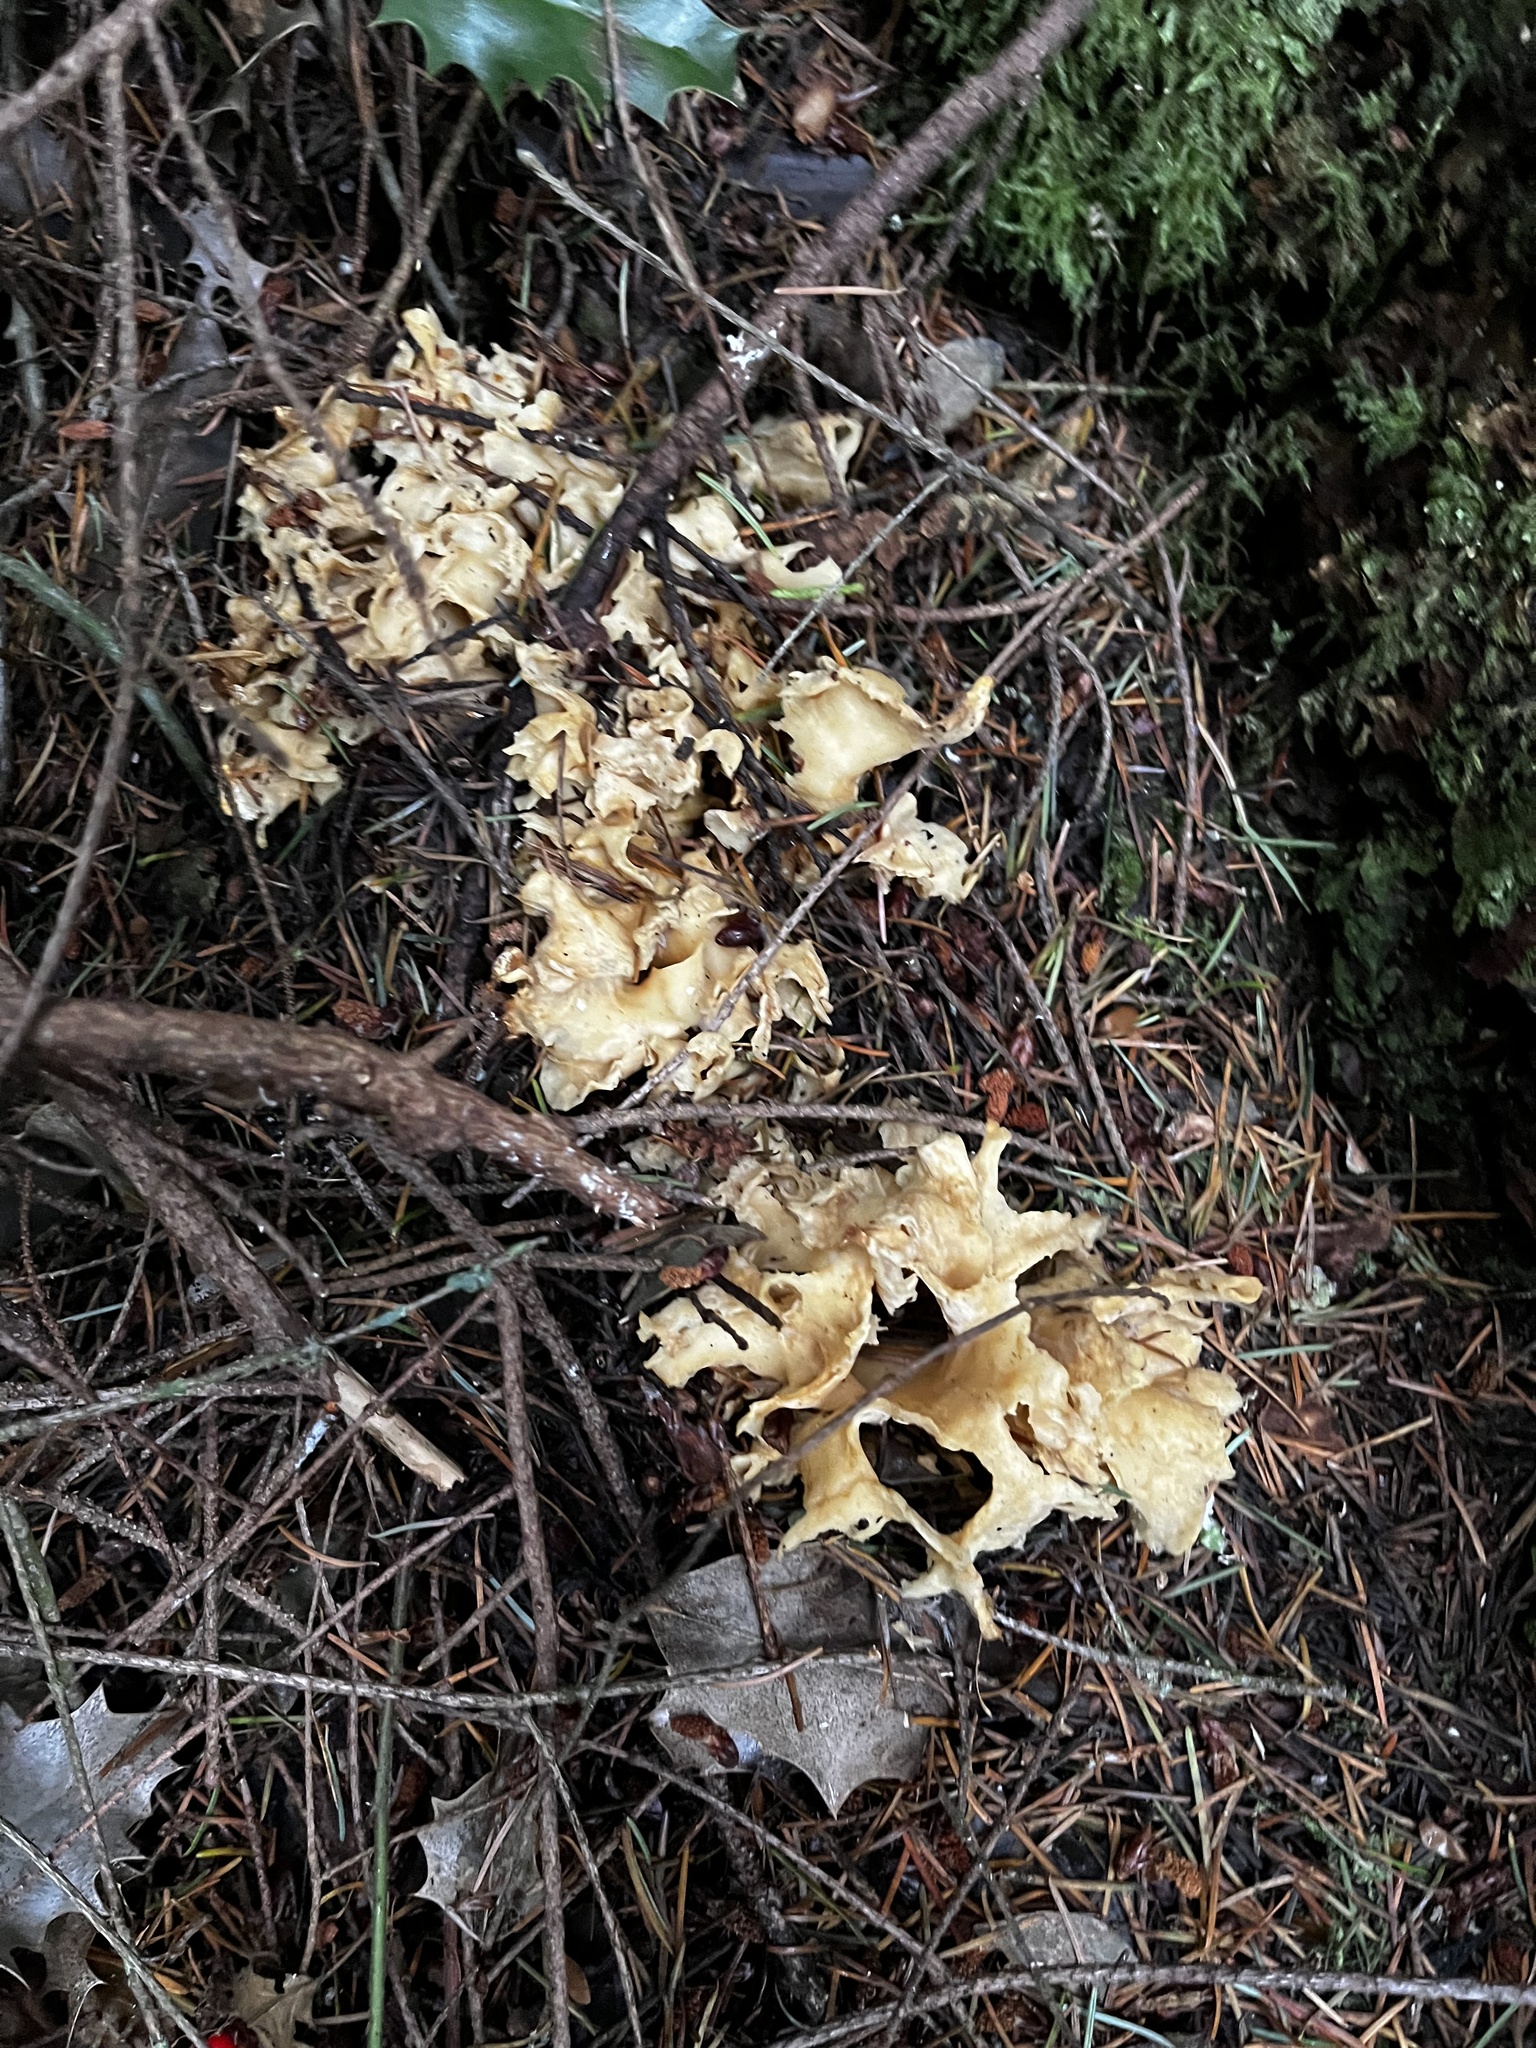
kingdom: Fungi
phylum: Basidiomycota
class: Agaricomycetes
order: Polyporales
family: Sparassidaceae
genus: Sparassis
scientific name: Sparassis radicata
